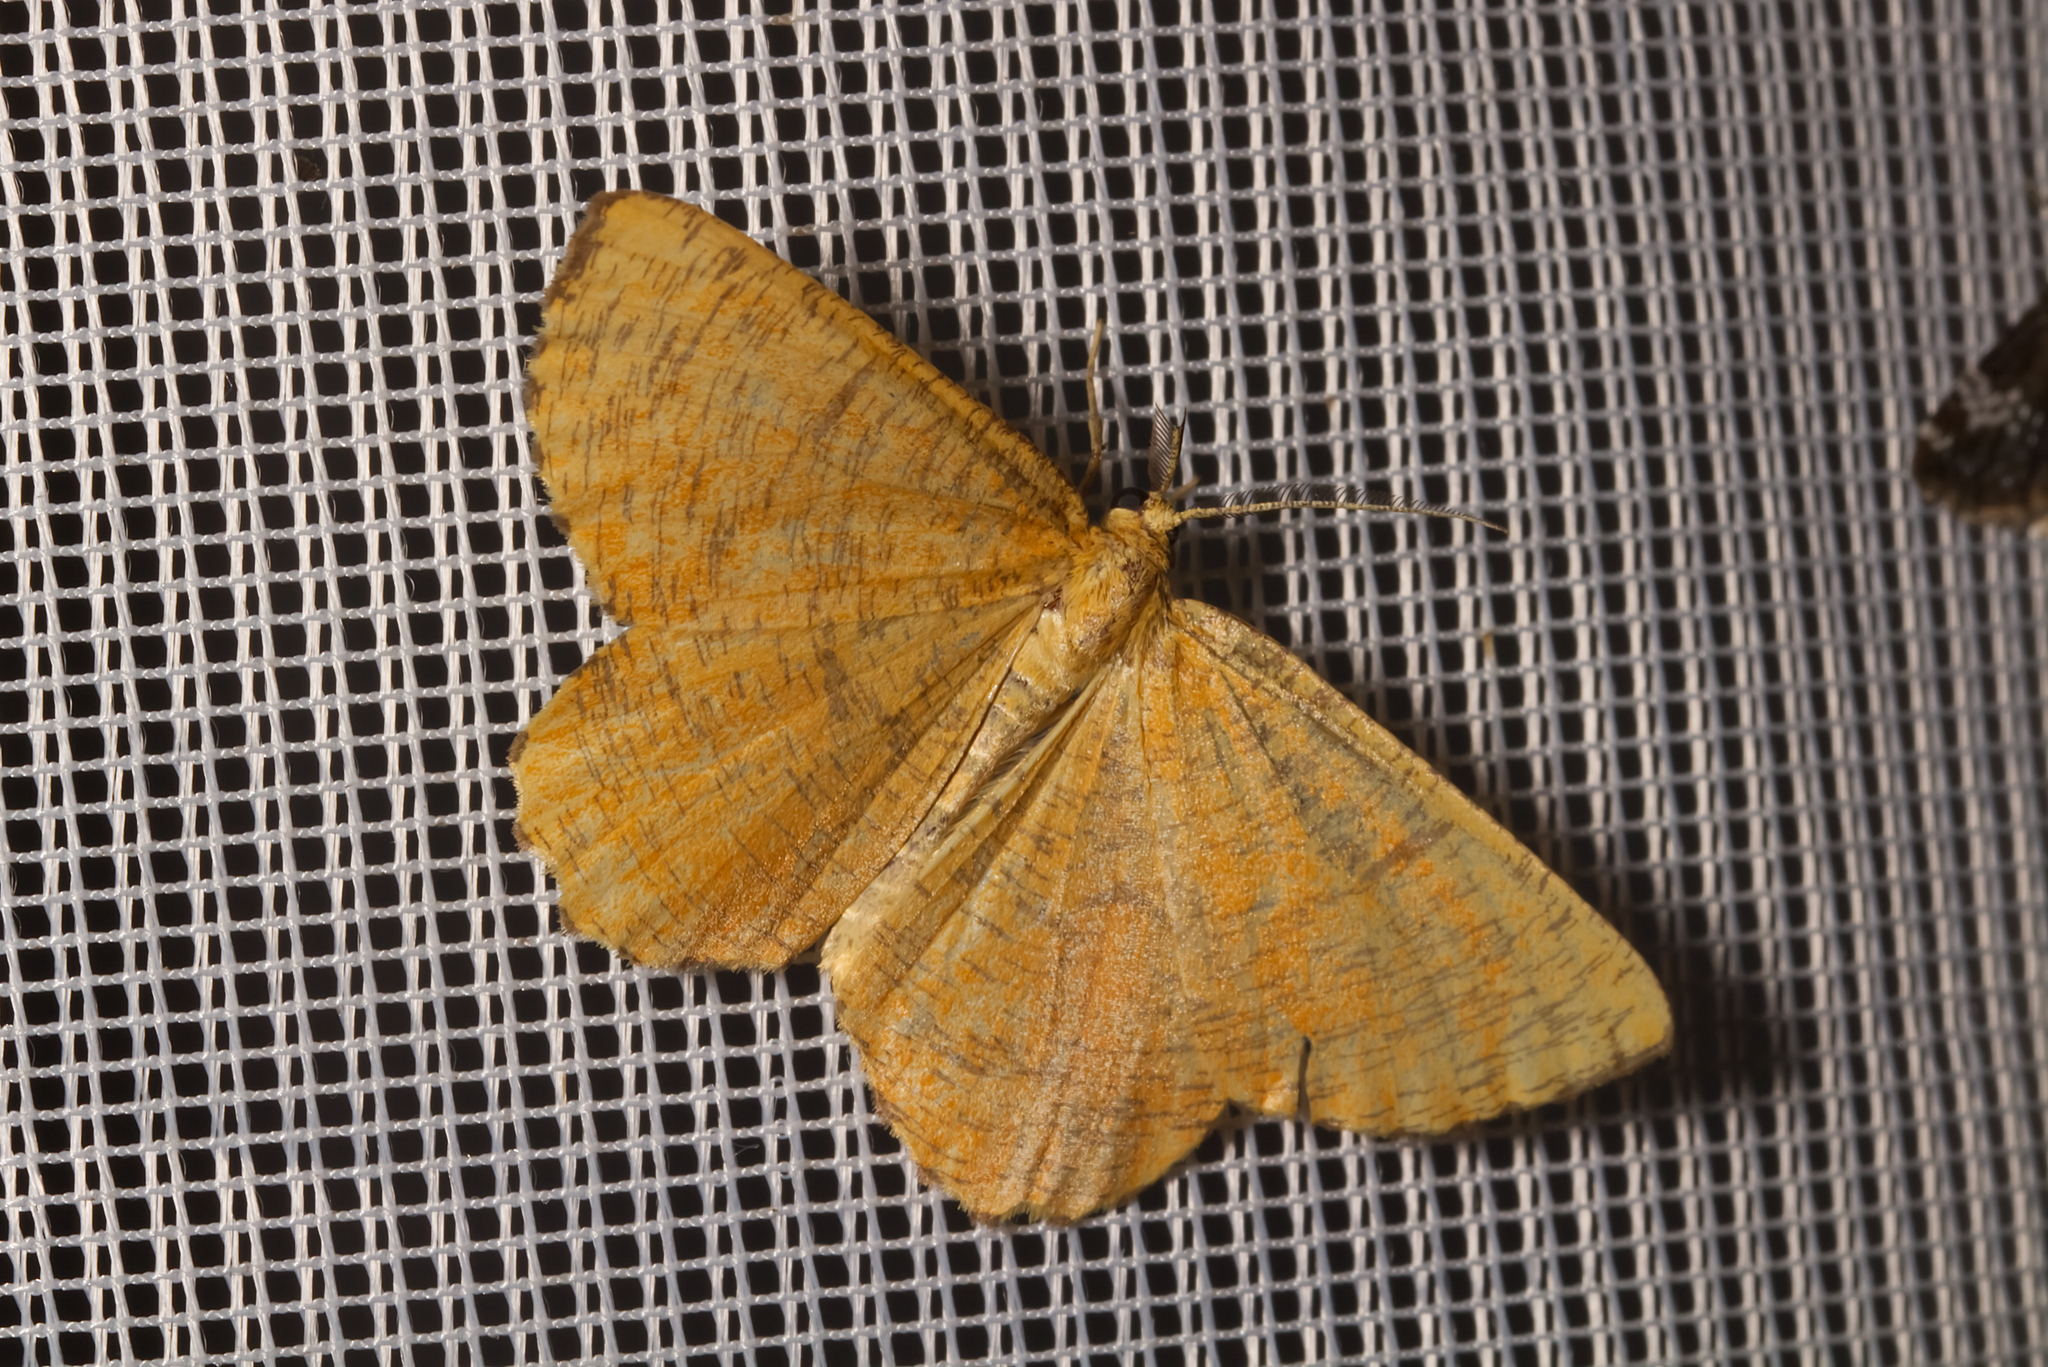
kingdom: Animalia
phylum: Arthropoda
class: Insecta
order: Lepidoptera
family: Geometridae
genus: Angerona
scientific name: Angerona prunaria
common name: Orange moth
